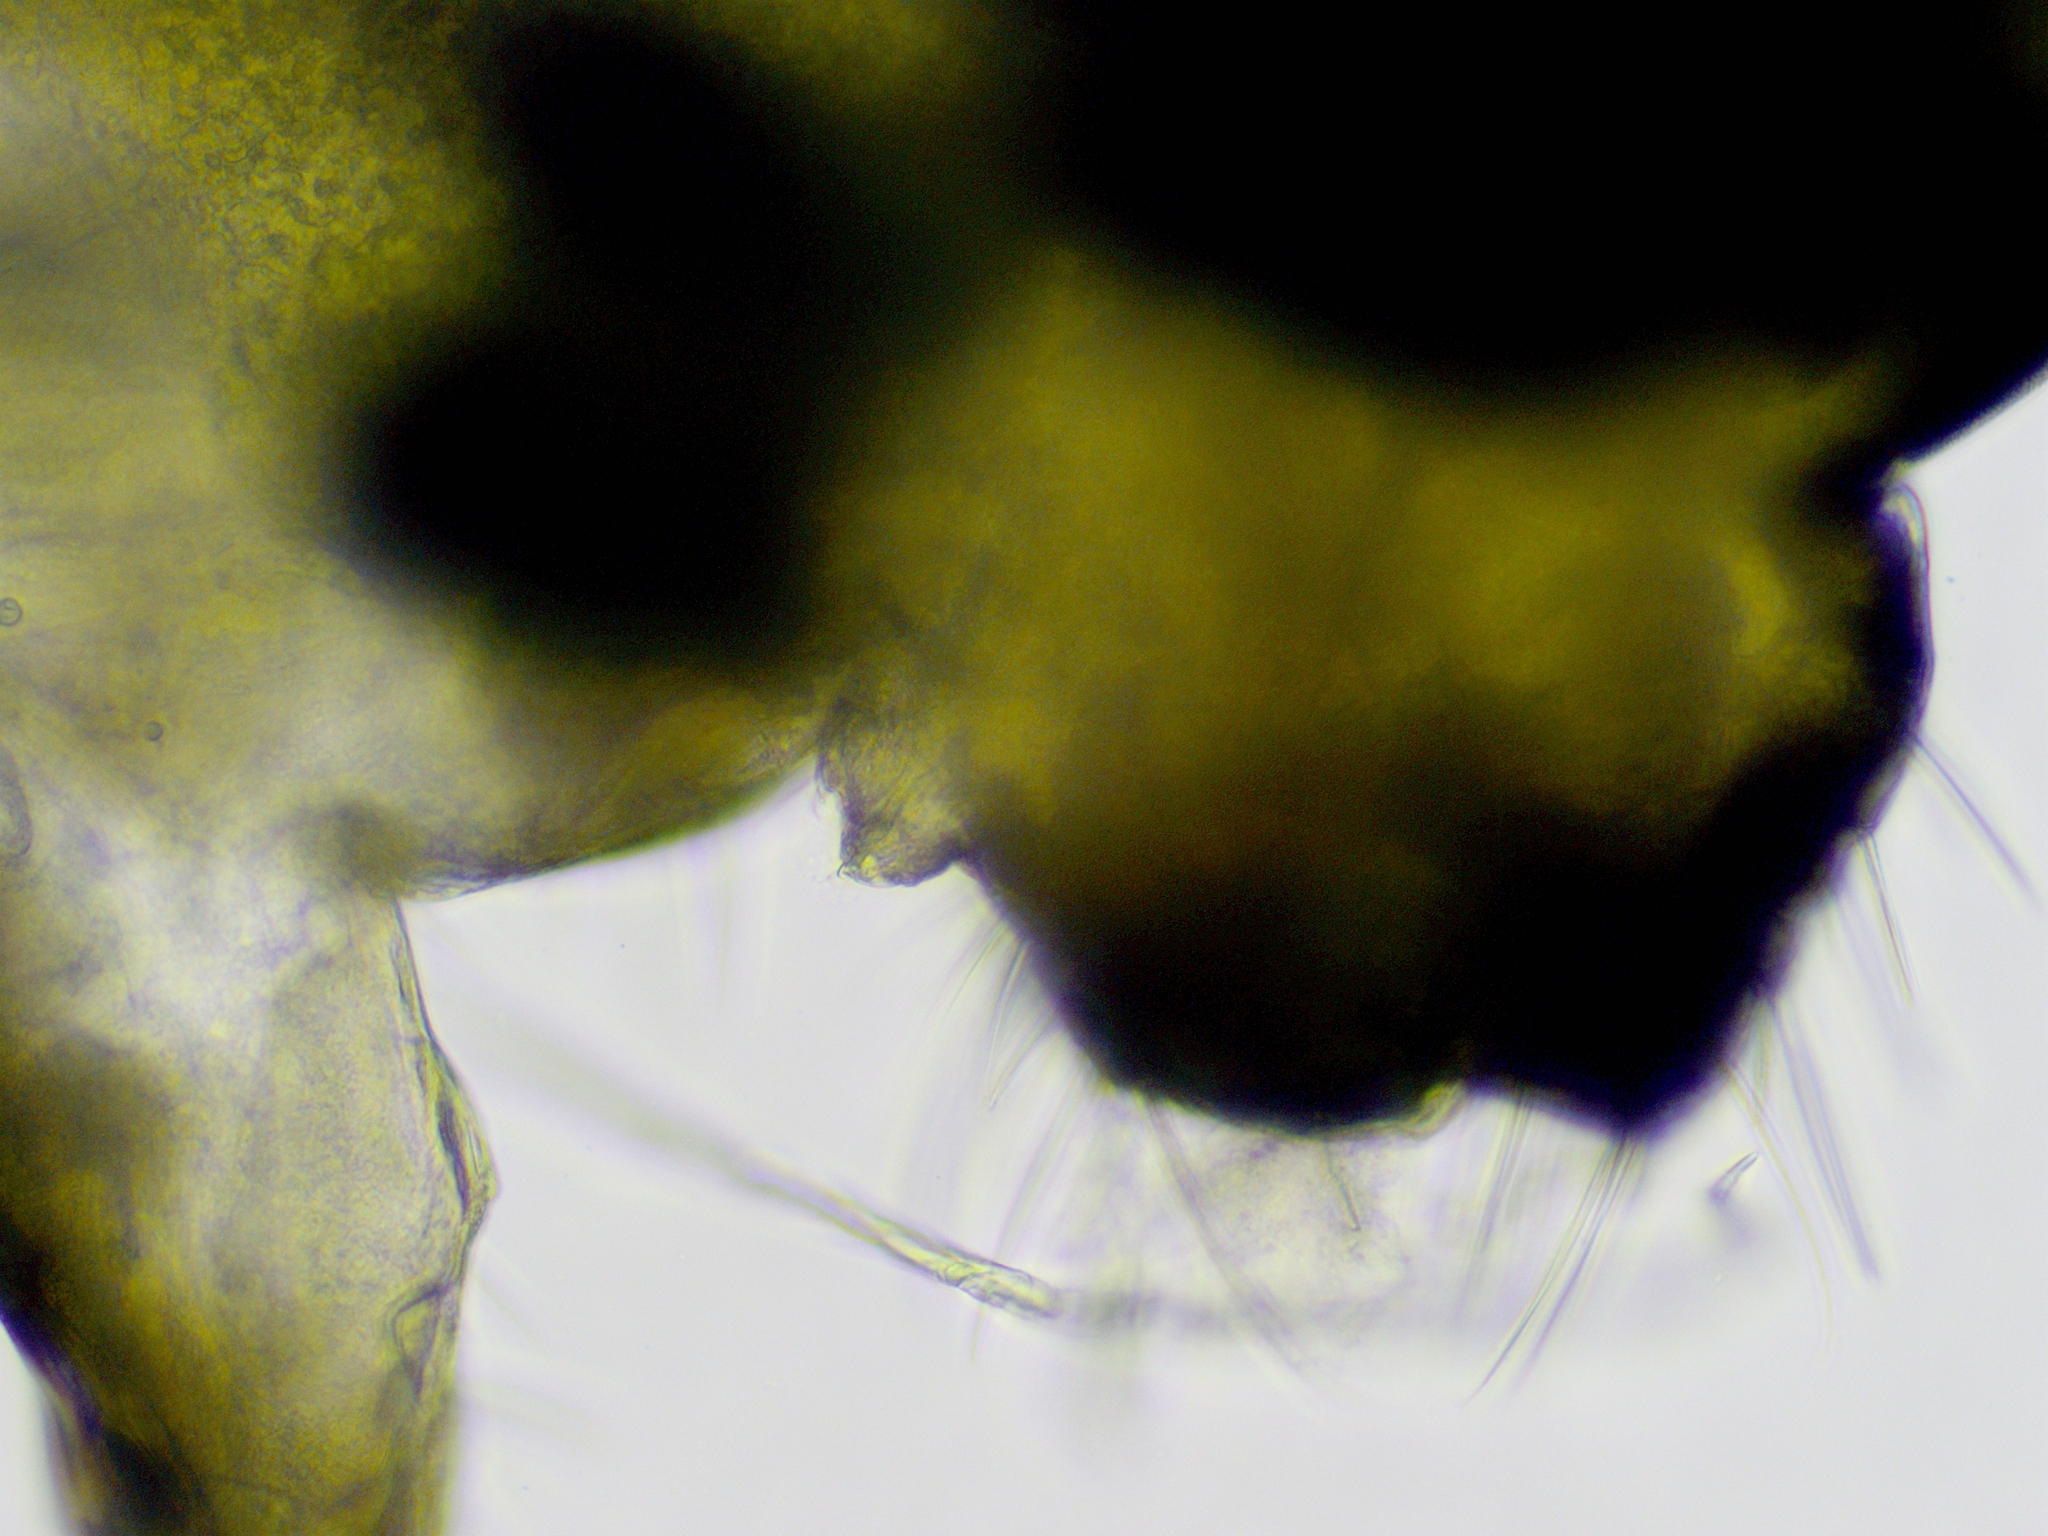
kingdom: Animalia
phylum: Arthropoda
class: Collembola
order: Symphypleona
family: Dicyrtomidae
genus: Dicyrtomina
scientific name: Dicyrtomina minuta
